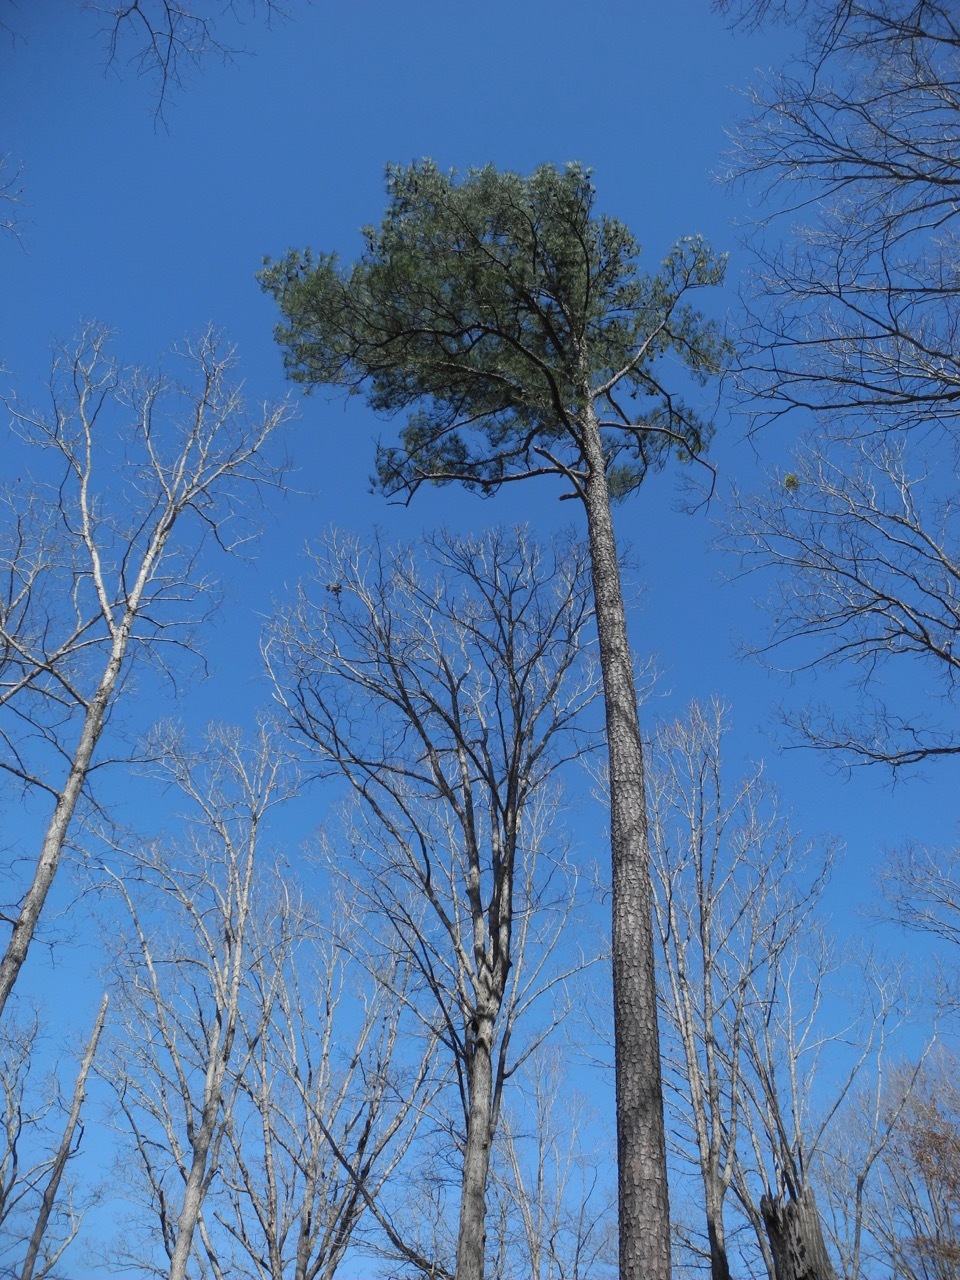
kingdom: Plantae
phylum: Tracheophyta
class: Pinopsida
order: Pinales
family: Pinaceae
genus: Pinus
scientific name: Pinus taeda
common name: Loblolly pine
